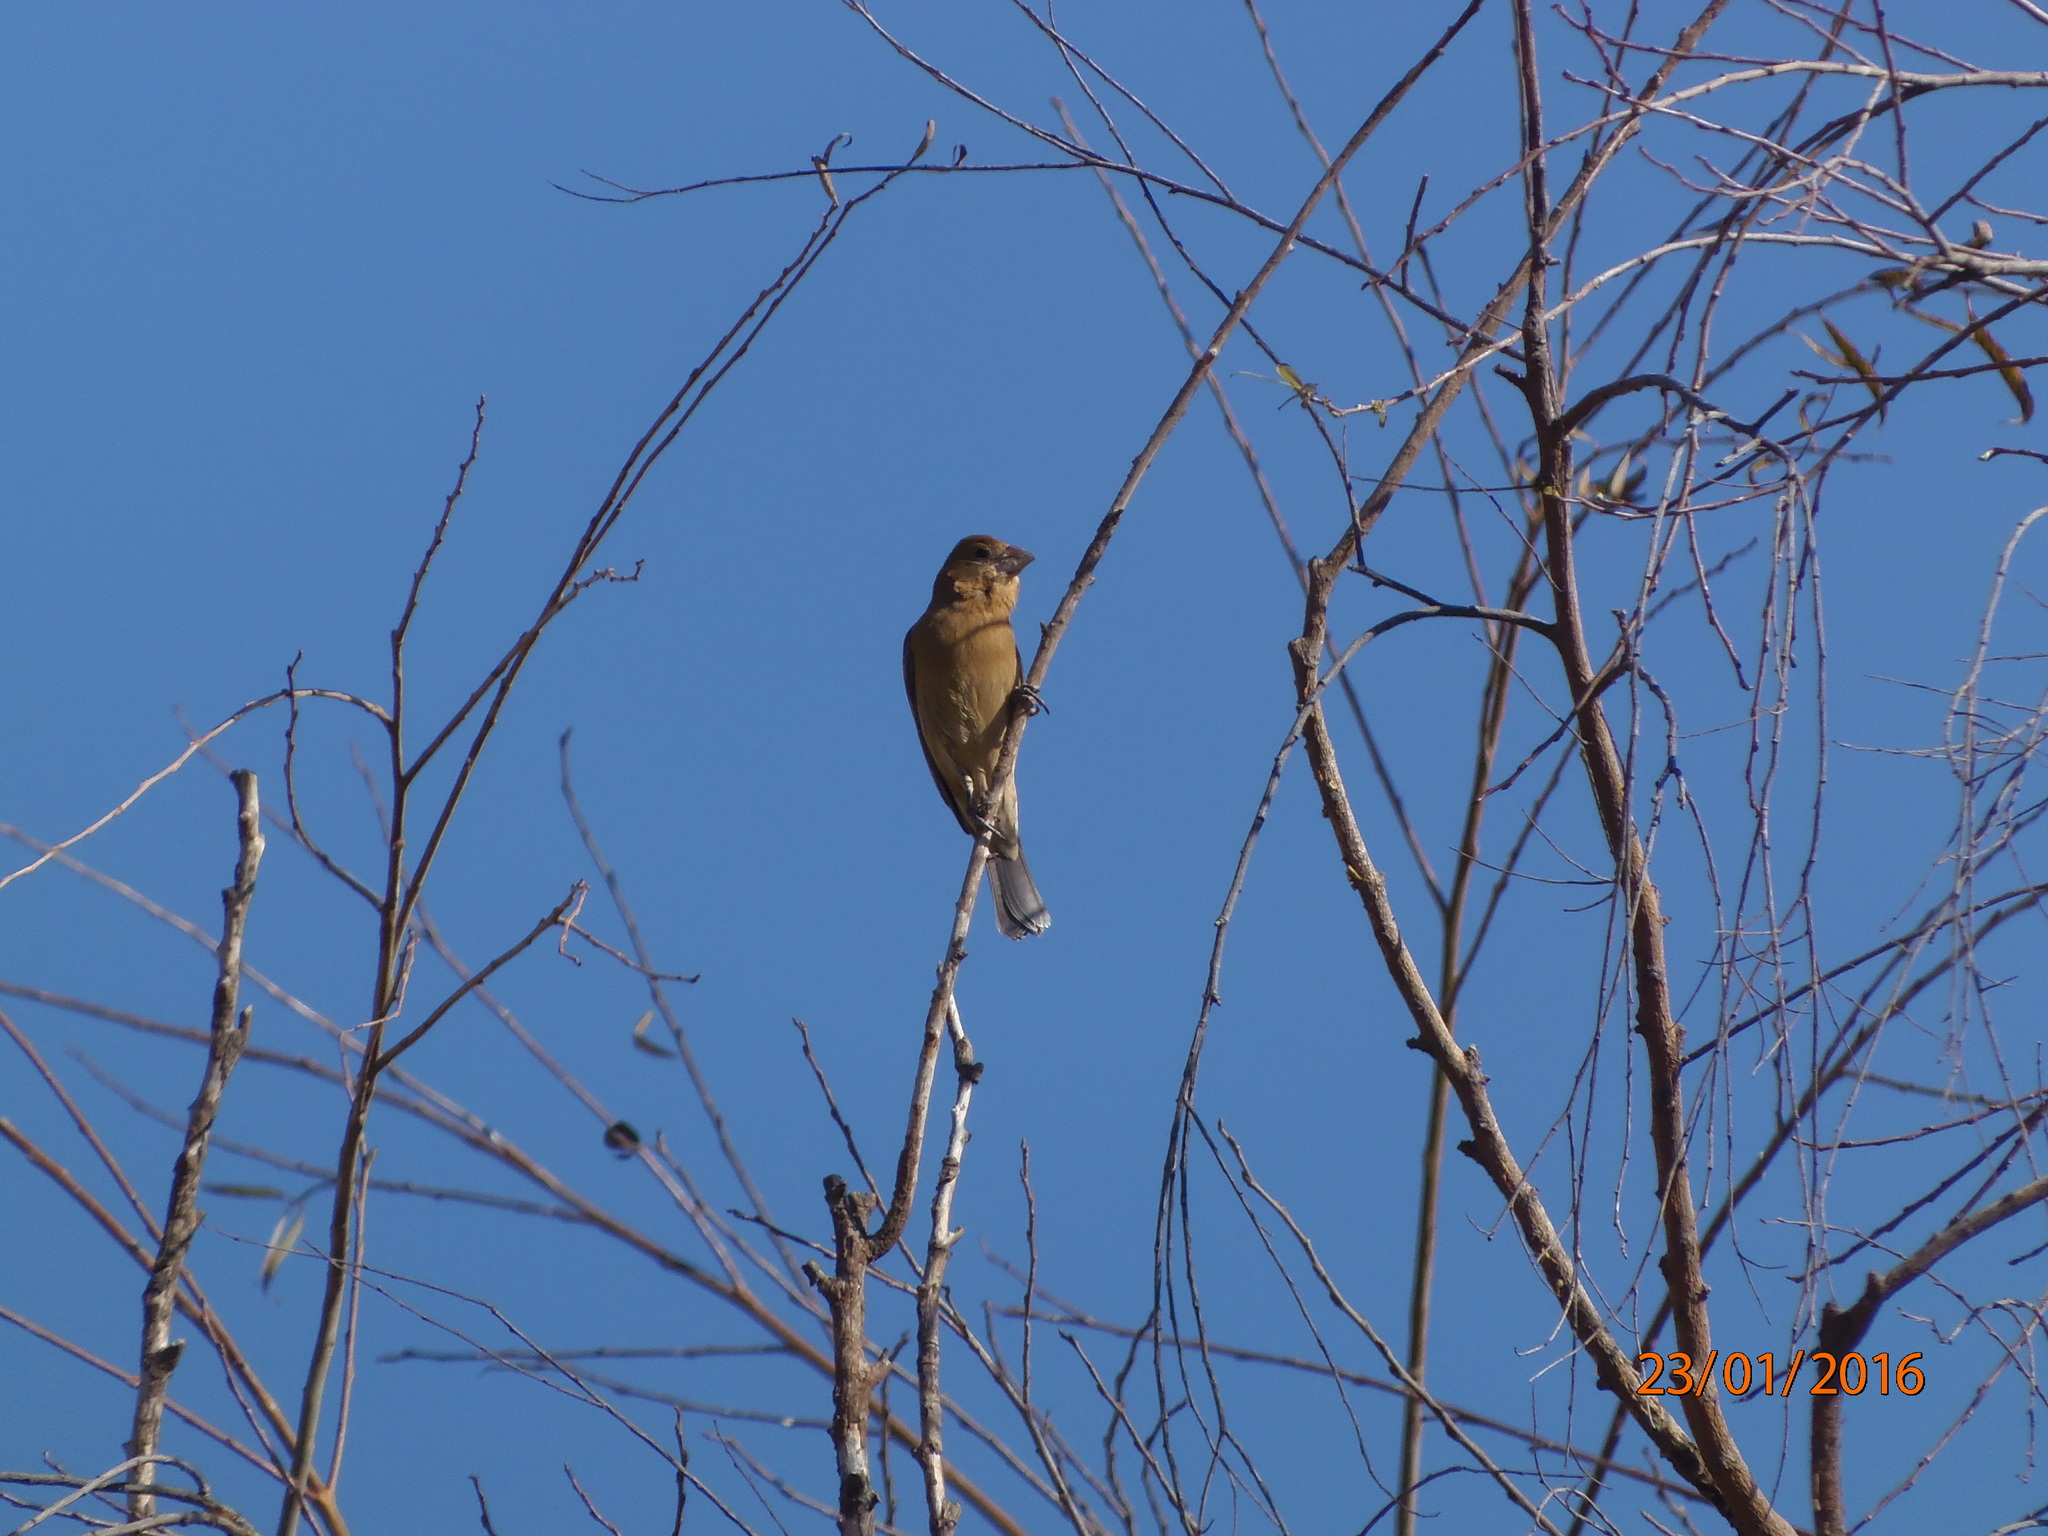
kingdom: Animalia
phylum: Chordata
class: Aves
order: Passeriformes
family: Cardinalidae
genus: Passerina
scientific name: Passerina caerulea
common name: Blue grosbeak
